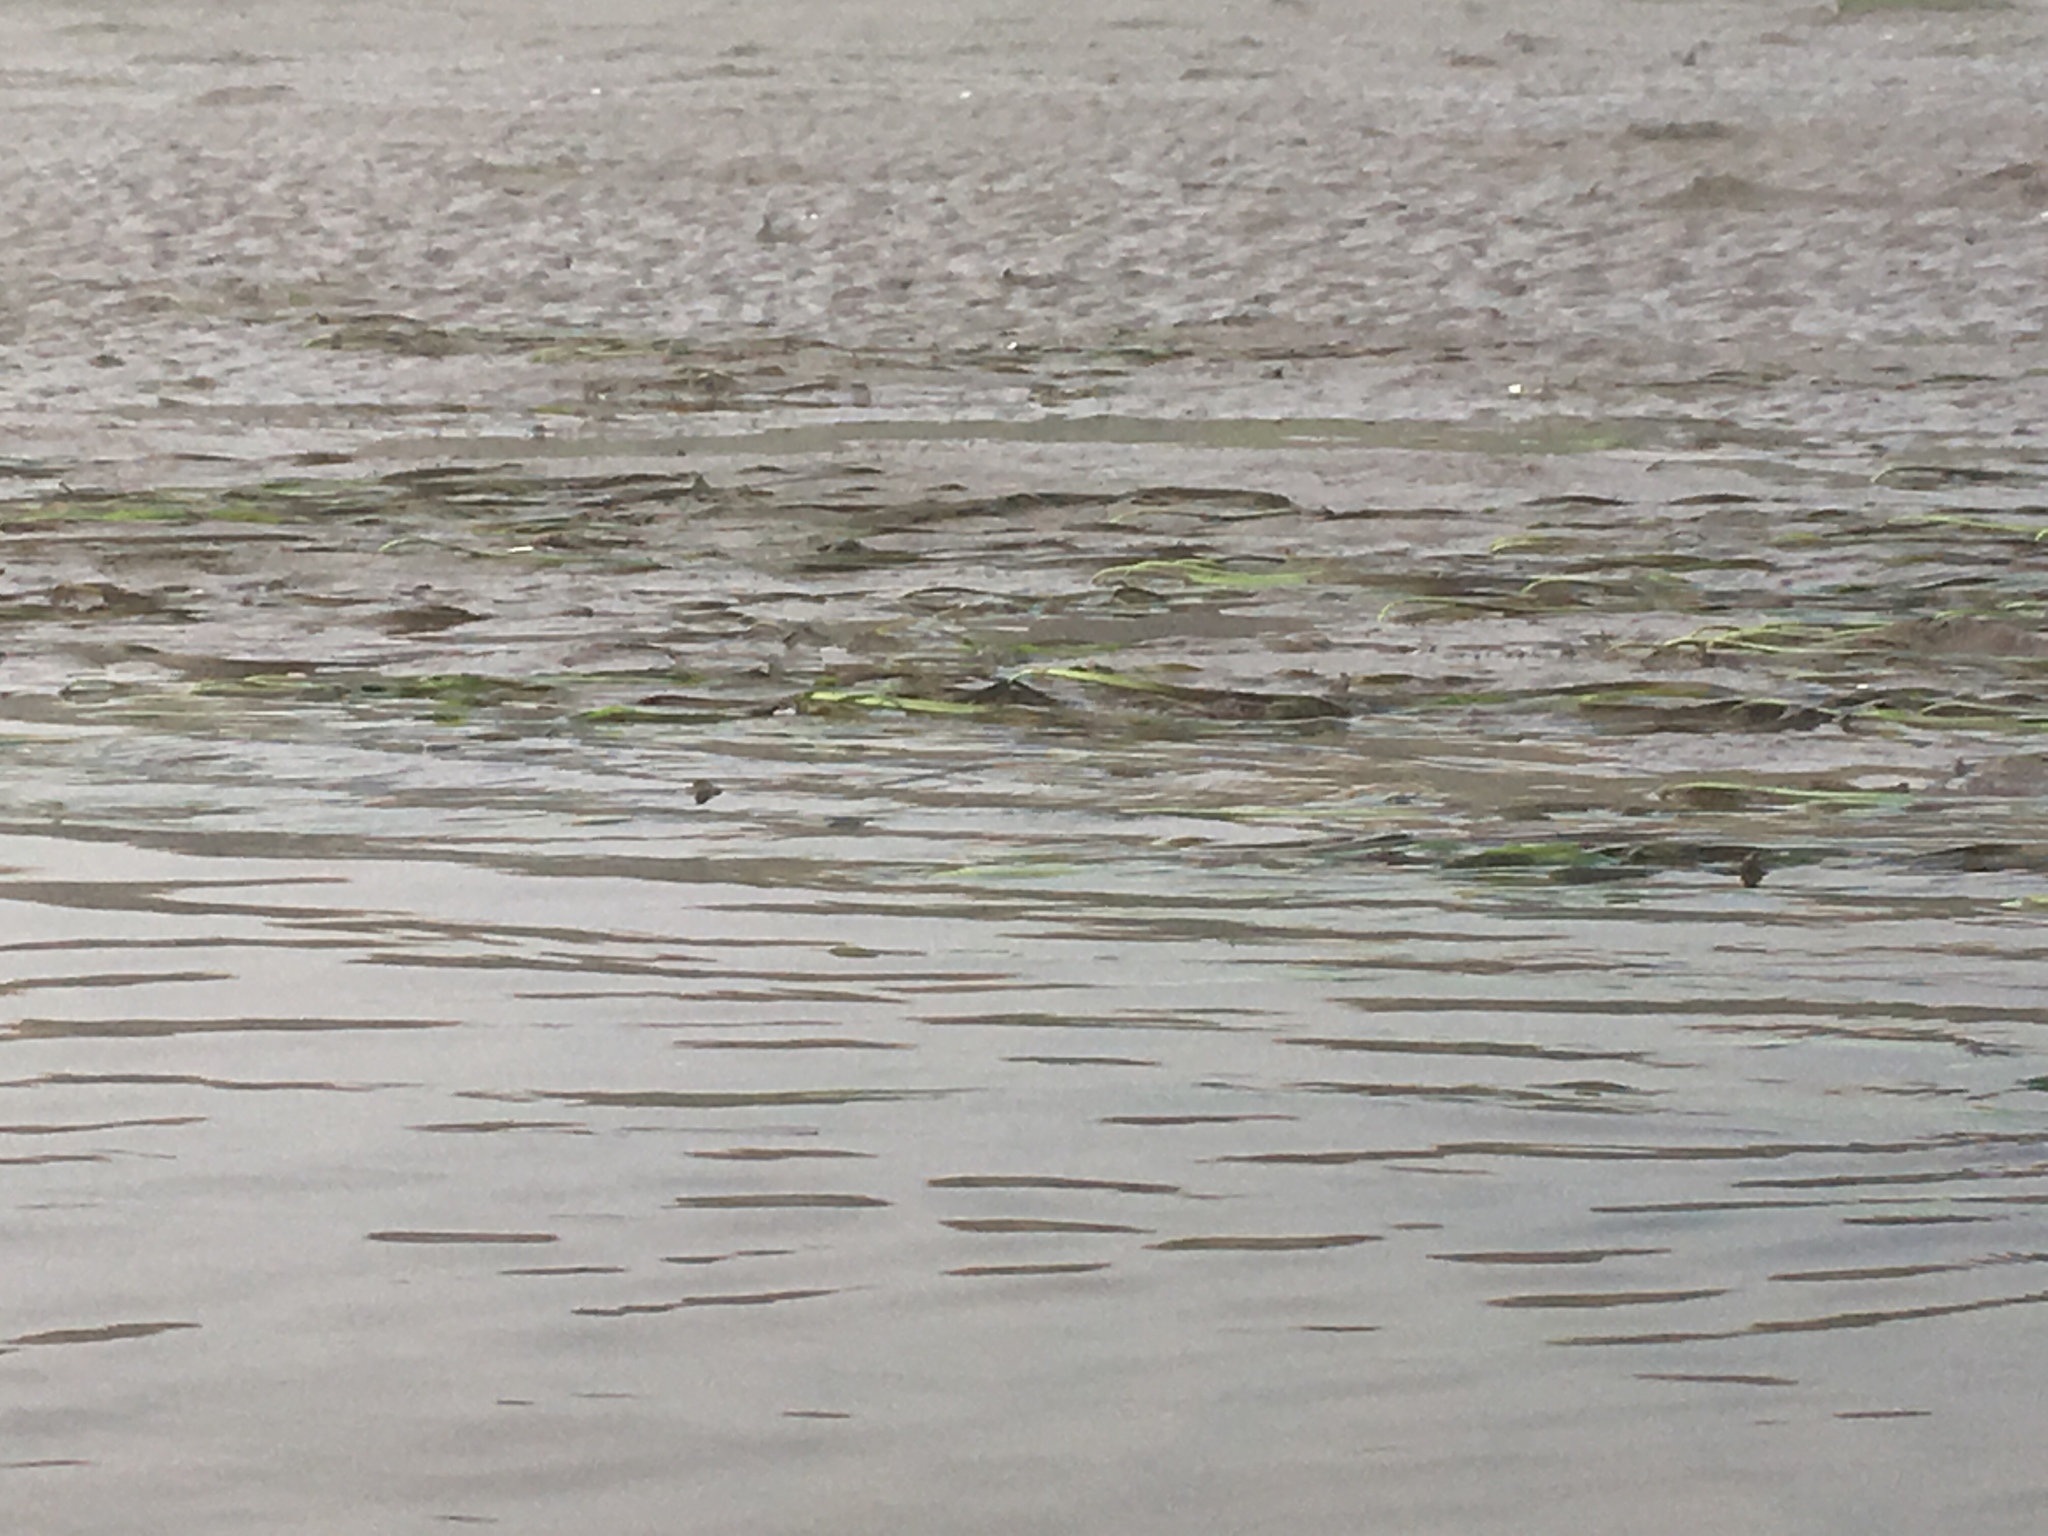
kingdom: Plantae
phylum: Tracheophyta
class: Liliopsida
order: Alismatales
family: Zosteraceae
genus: Zostera
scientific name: Zostera marina
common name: Eelgrass
